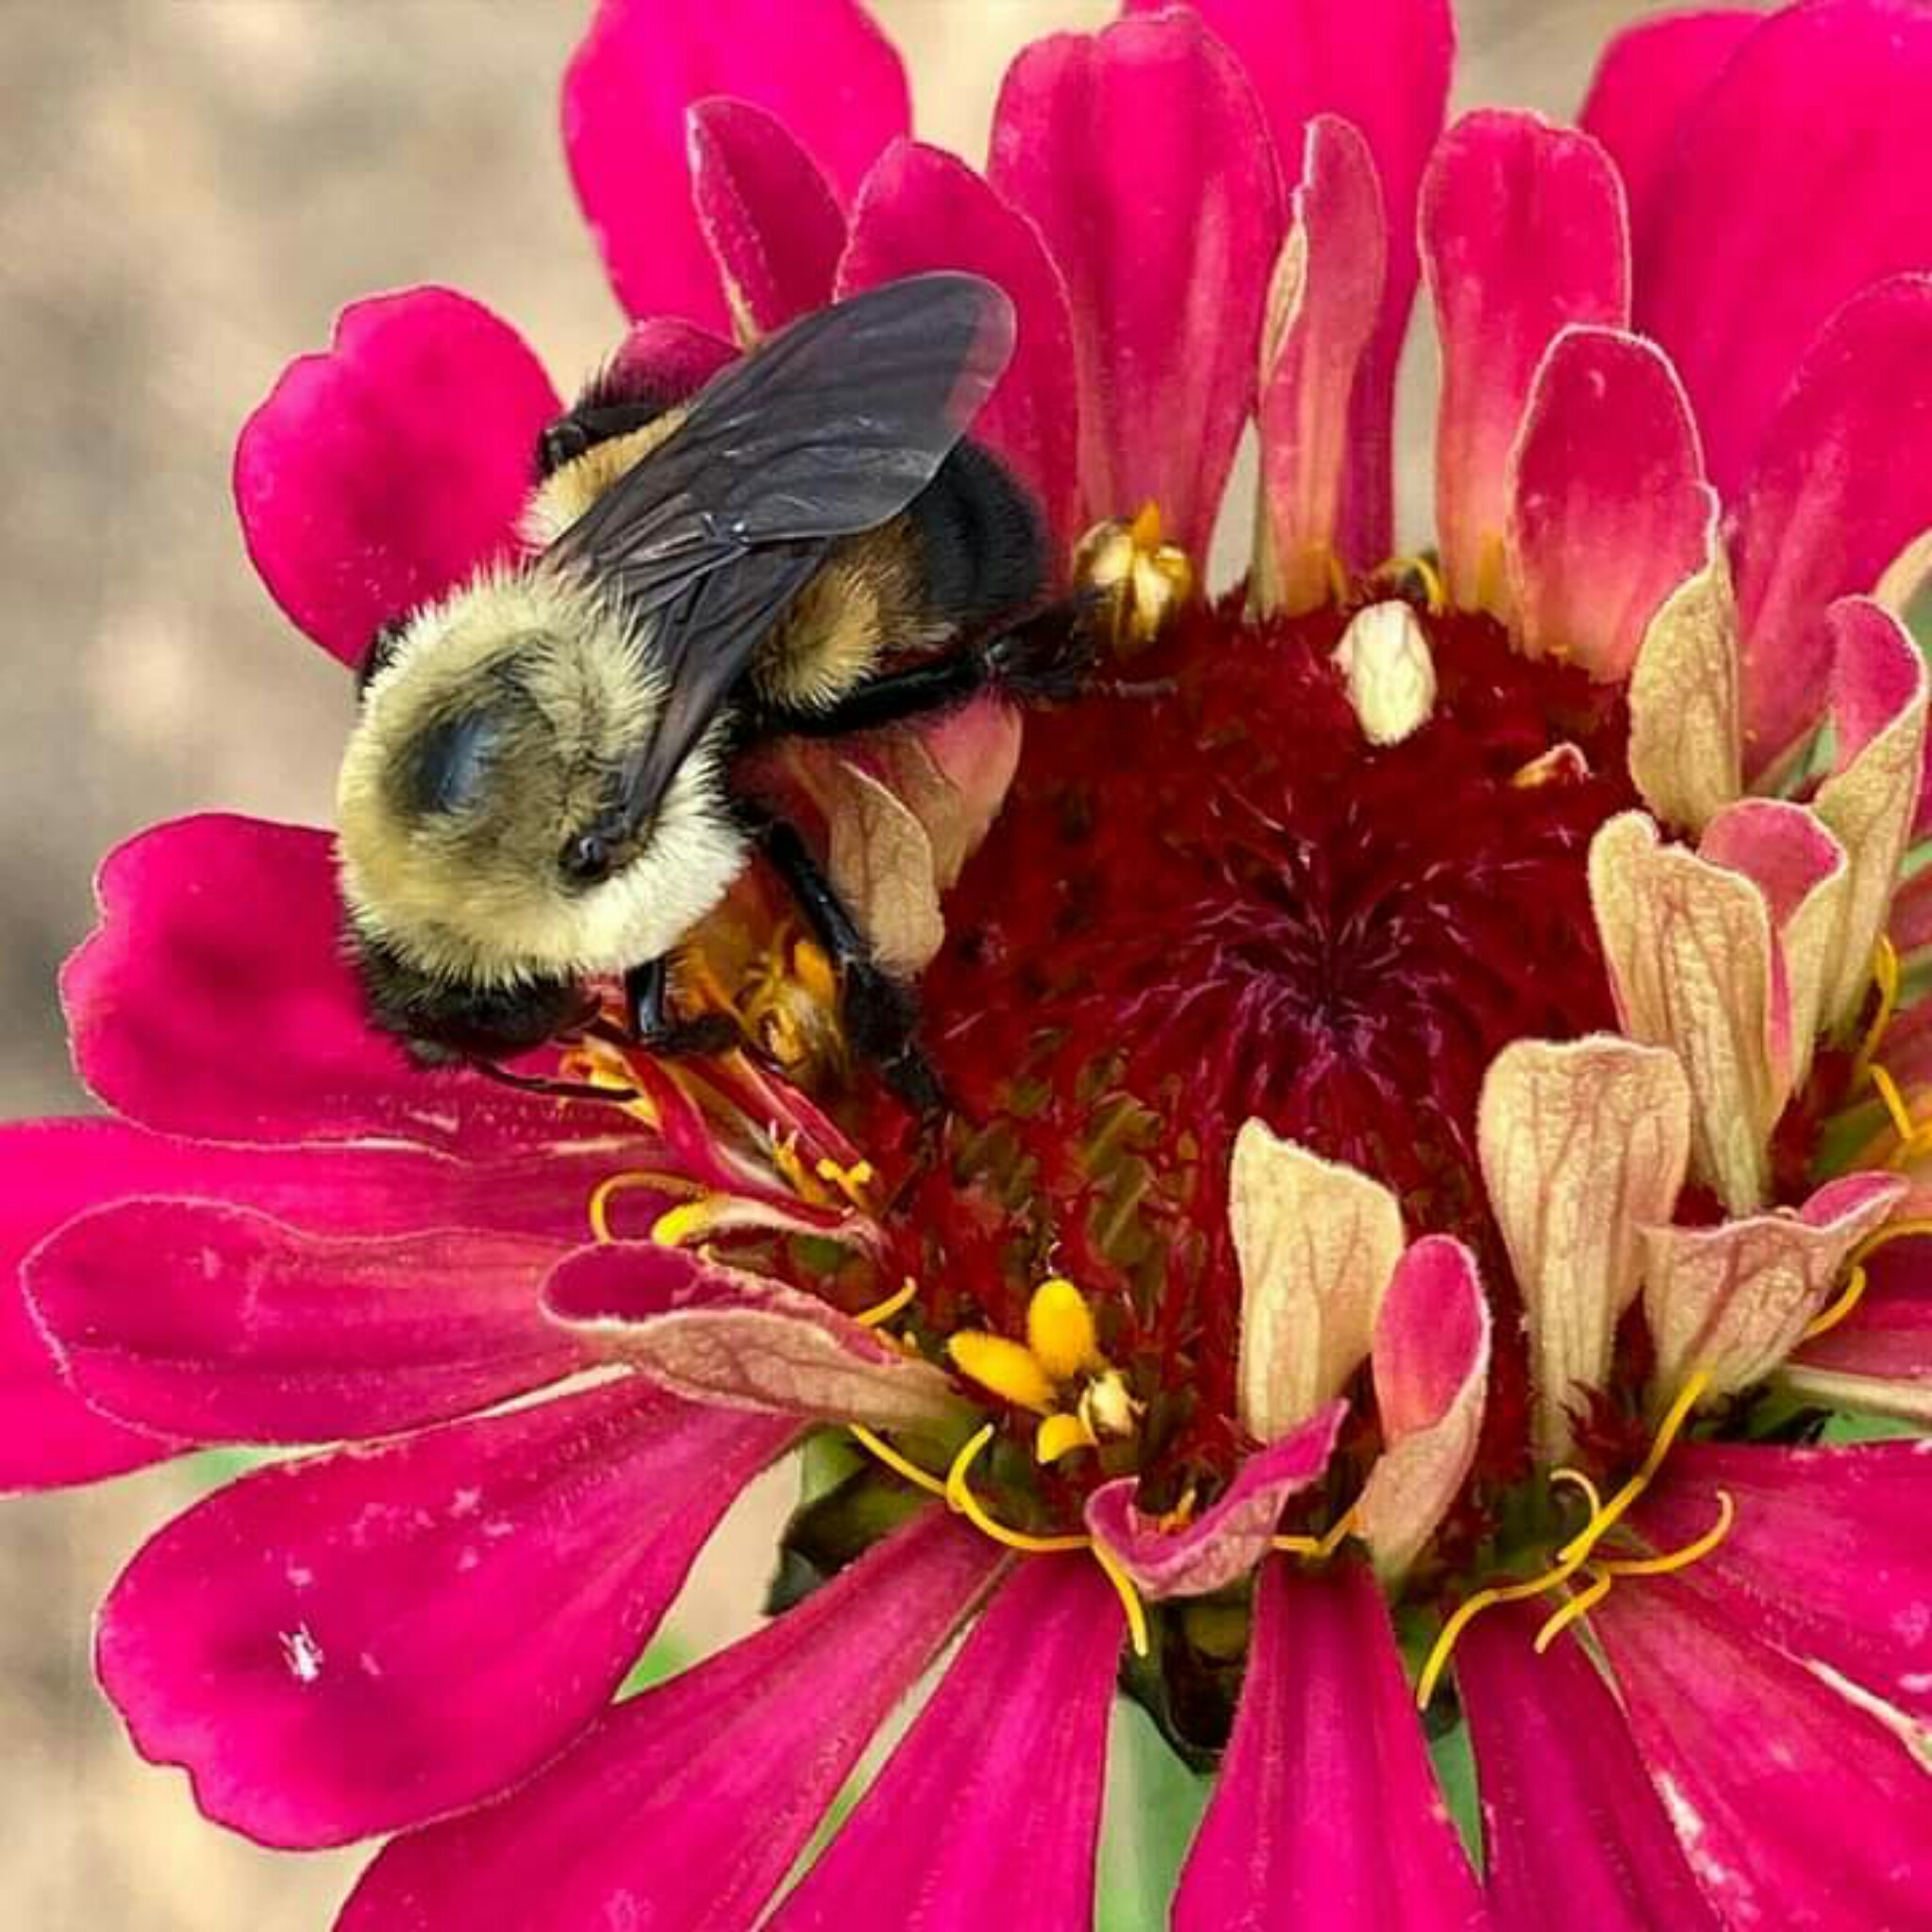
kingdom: Animalia
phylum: Arthropoda
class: Insecta
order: Hymenoptera
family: Apidae
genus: Bombus
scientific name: Bombus griseocollis
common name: Brown-belted bumble bee
